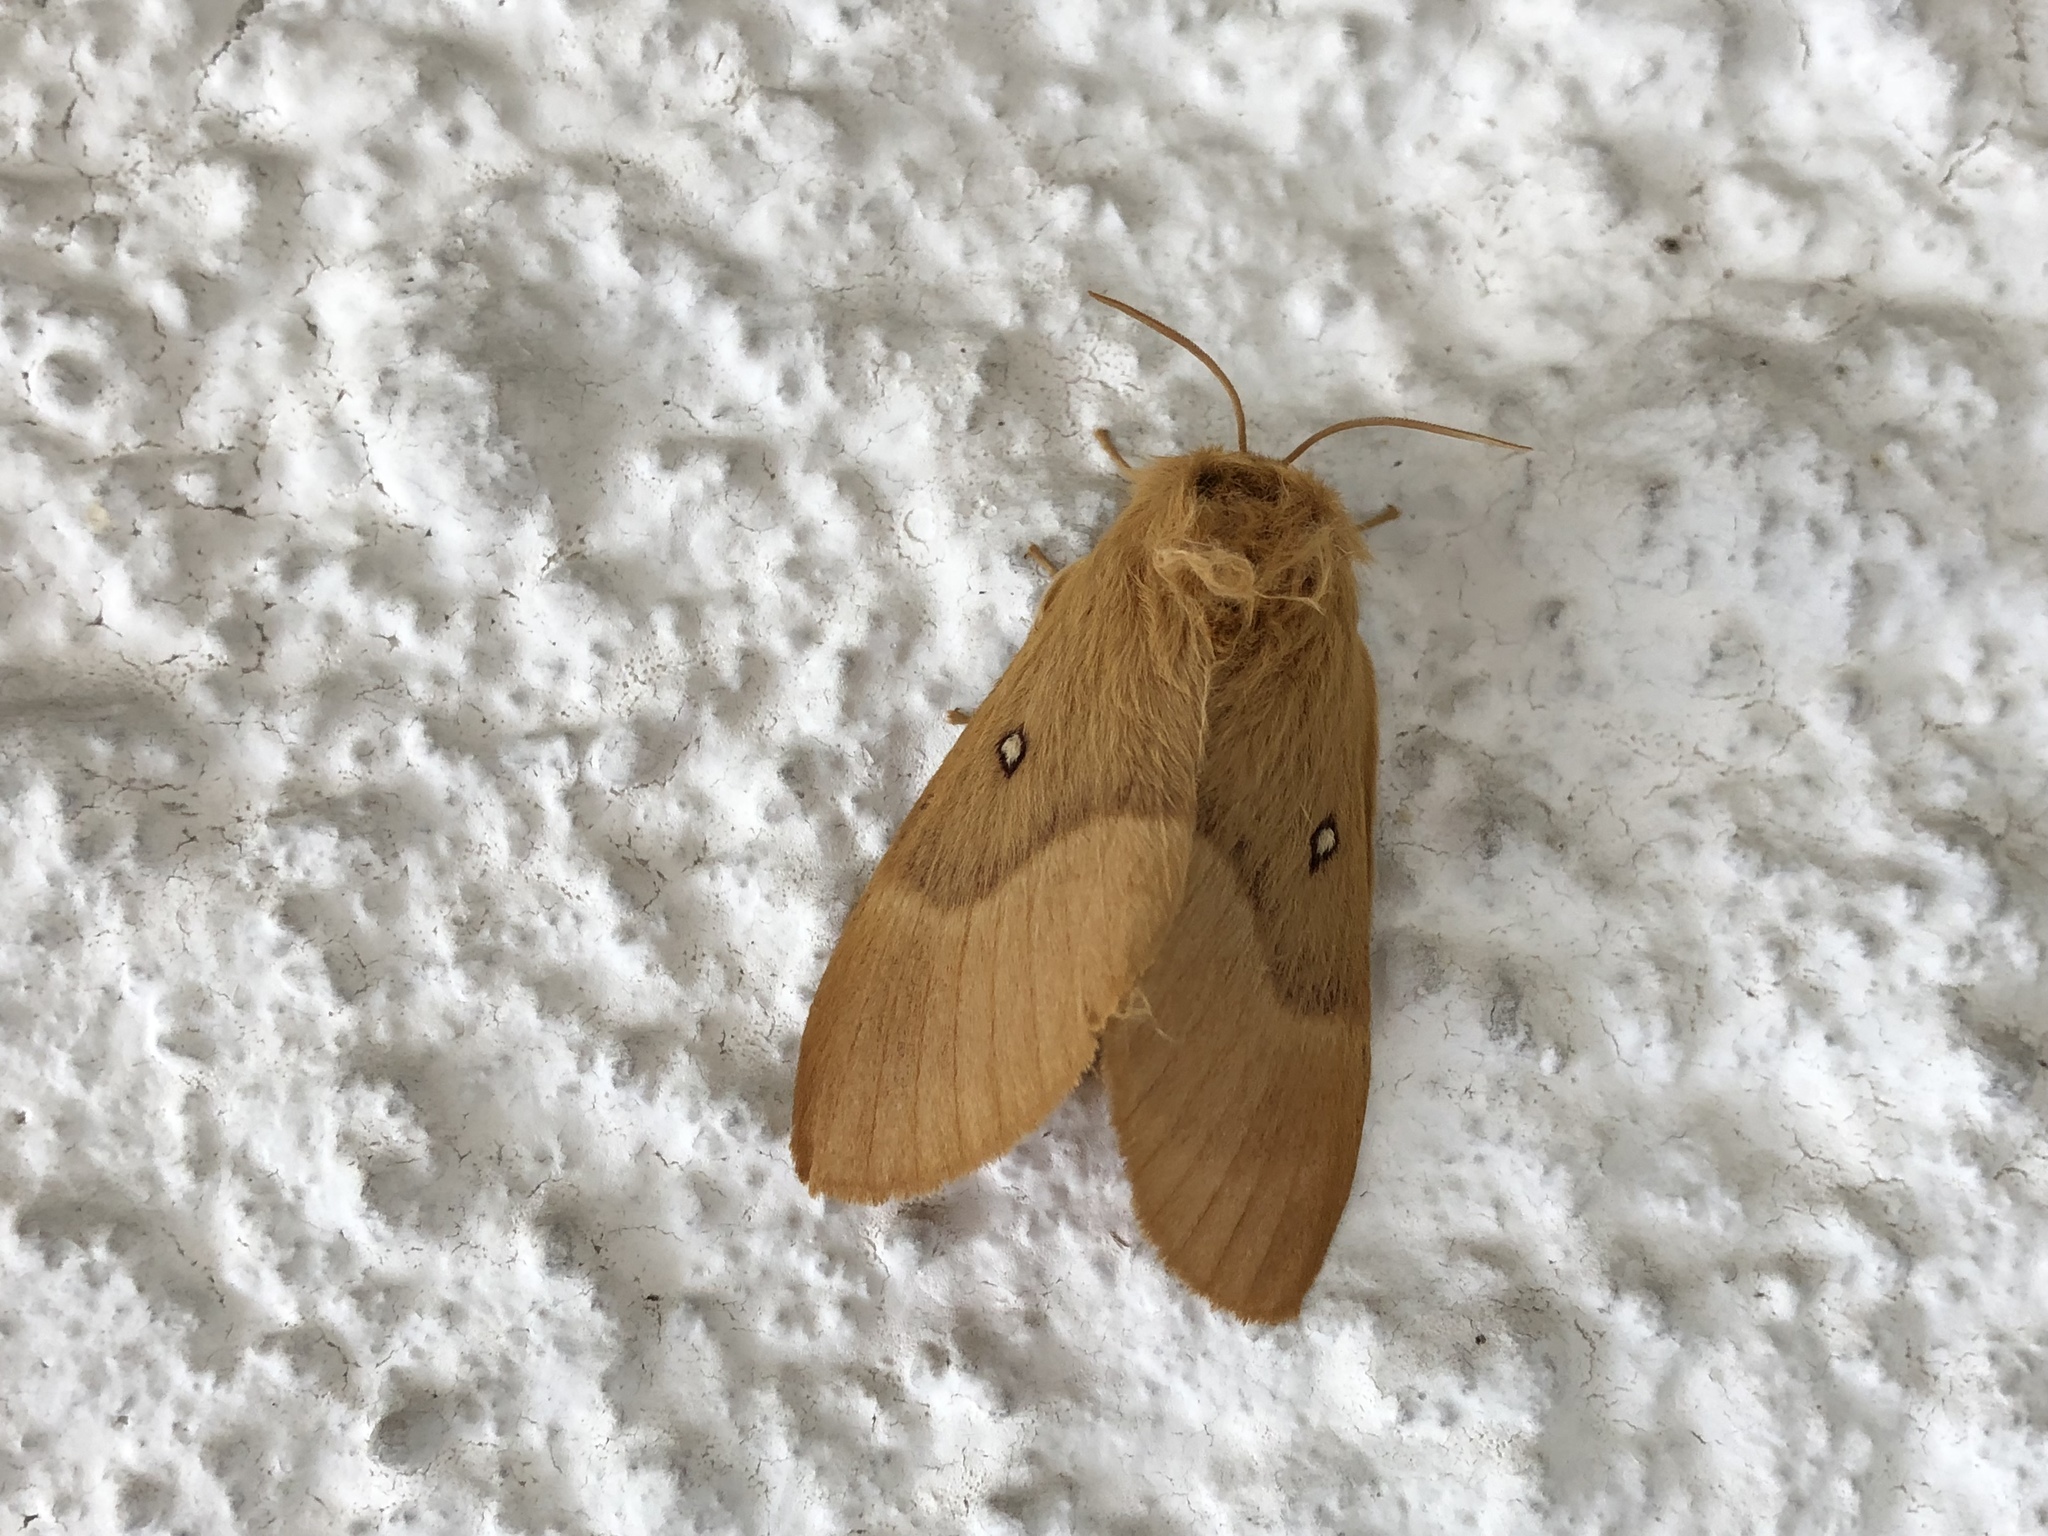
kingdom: Animalia
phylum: Arthropoda
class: Insecta
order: Lepidoptera
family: Lasiocampidae
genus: Lasiocampa
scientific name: Lasiocampa quercus
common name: Oak eggar
